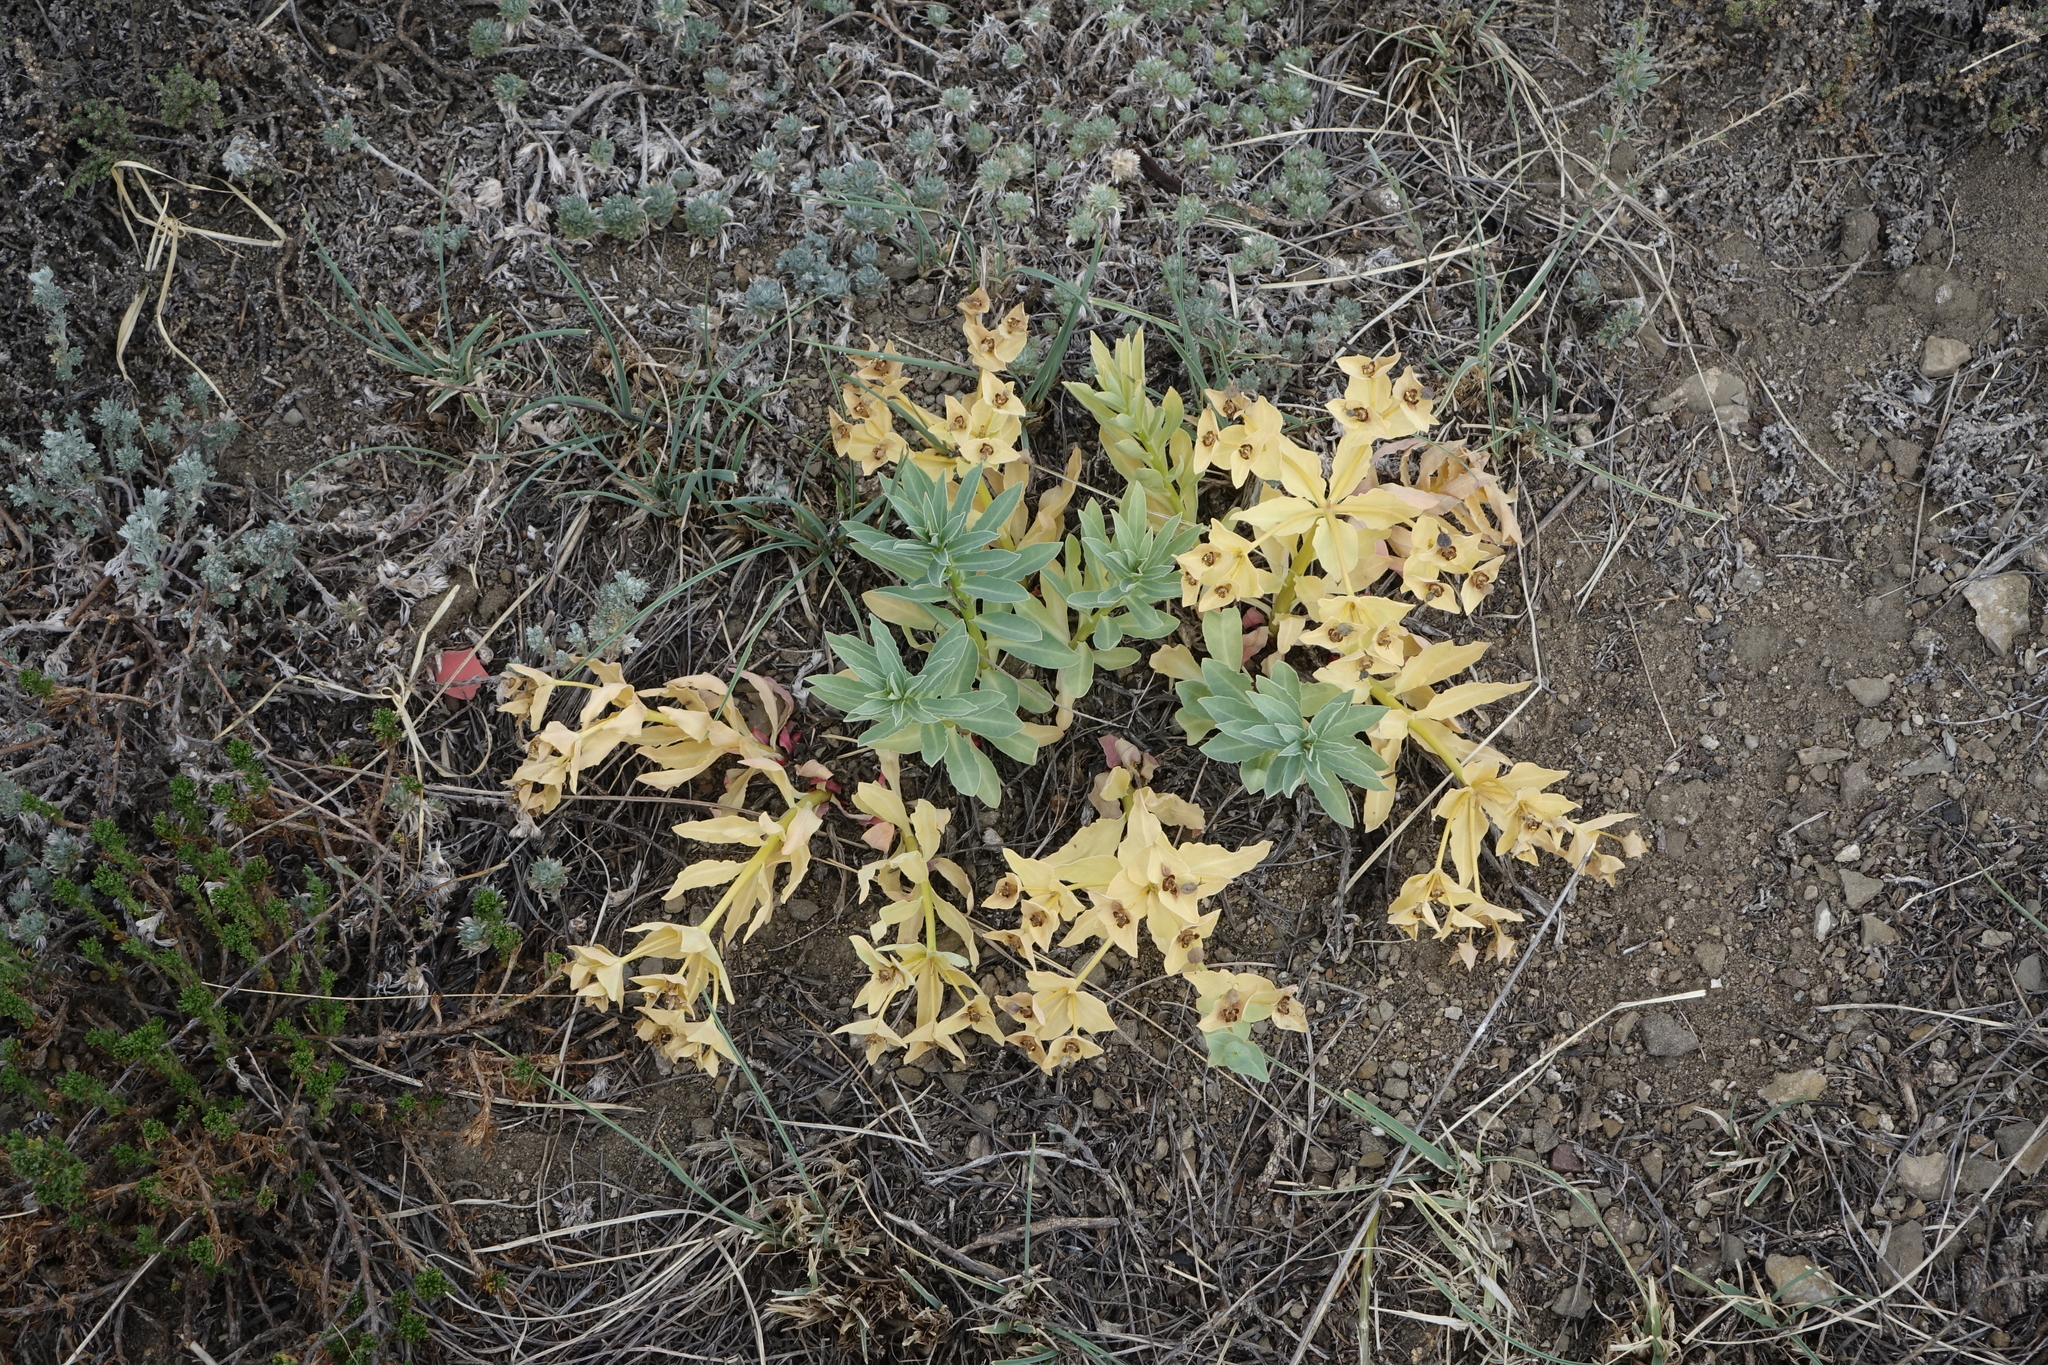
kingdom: Plantae
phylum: Tracheophyta
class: Magnoliopsida
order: Malpighiales
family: Euphorbiaceae
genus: Euphorbia
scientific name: Euphorbia mongolica
